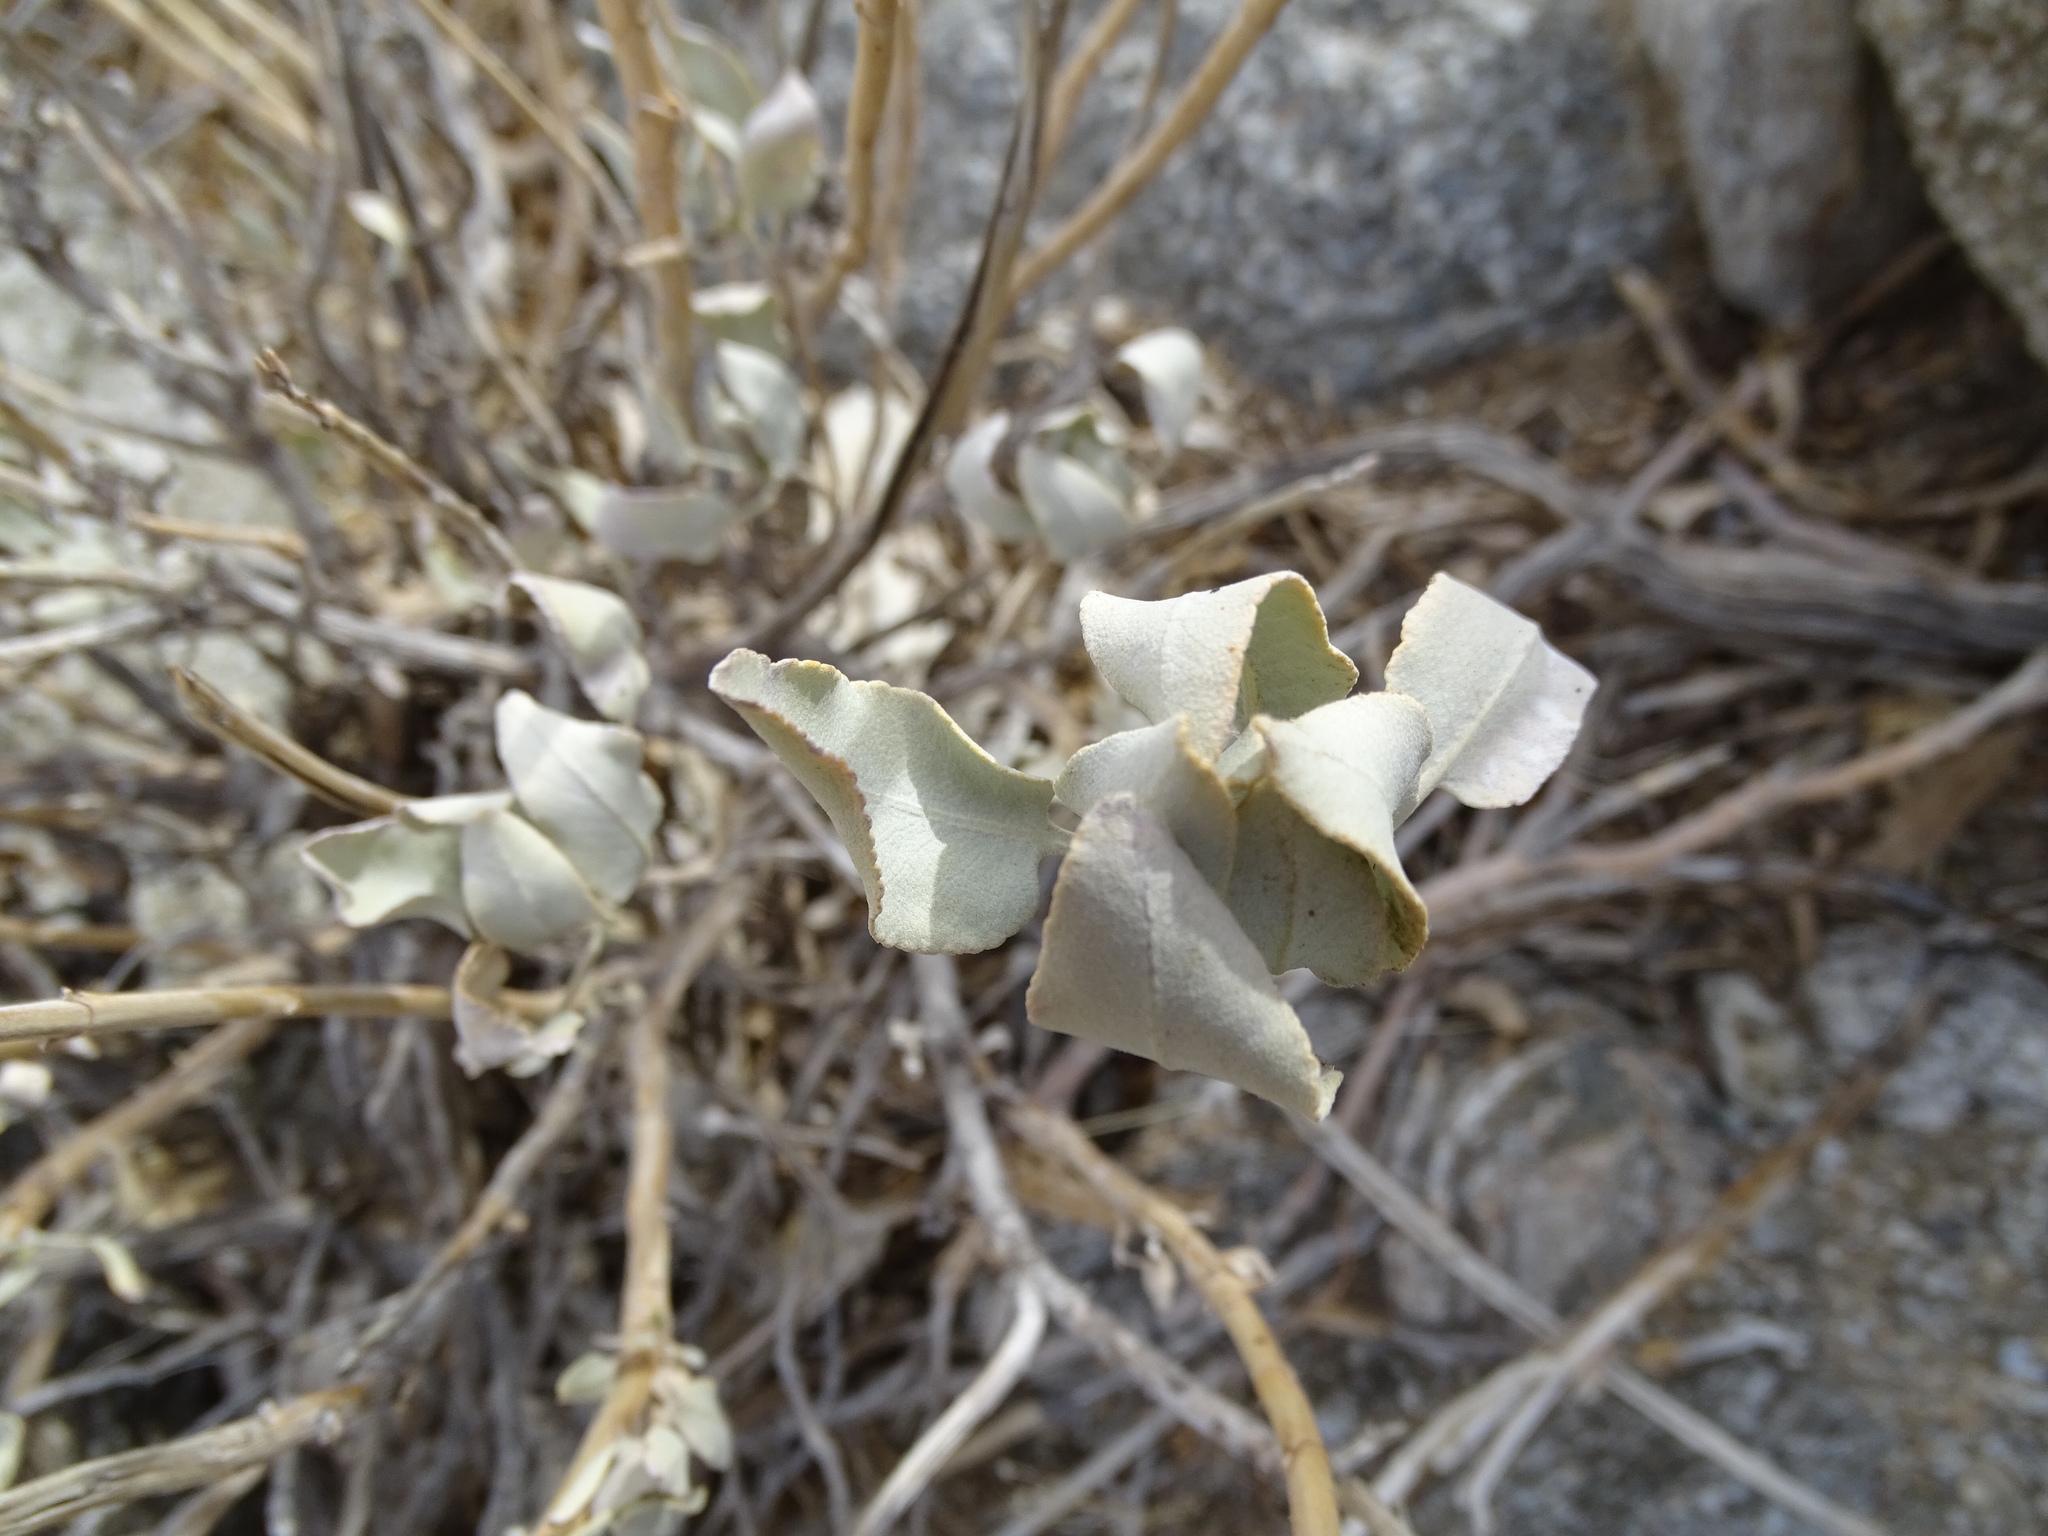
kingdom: Plantae
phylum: Tracheophyta
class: Magnoliopsida
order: Lamiales
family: Lamiaceae
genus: Salvia
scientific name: Salvia vaseyi
